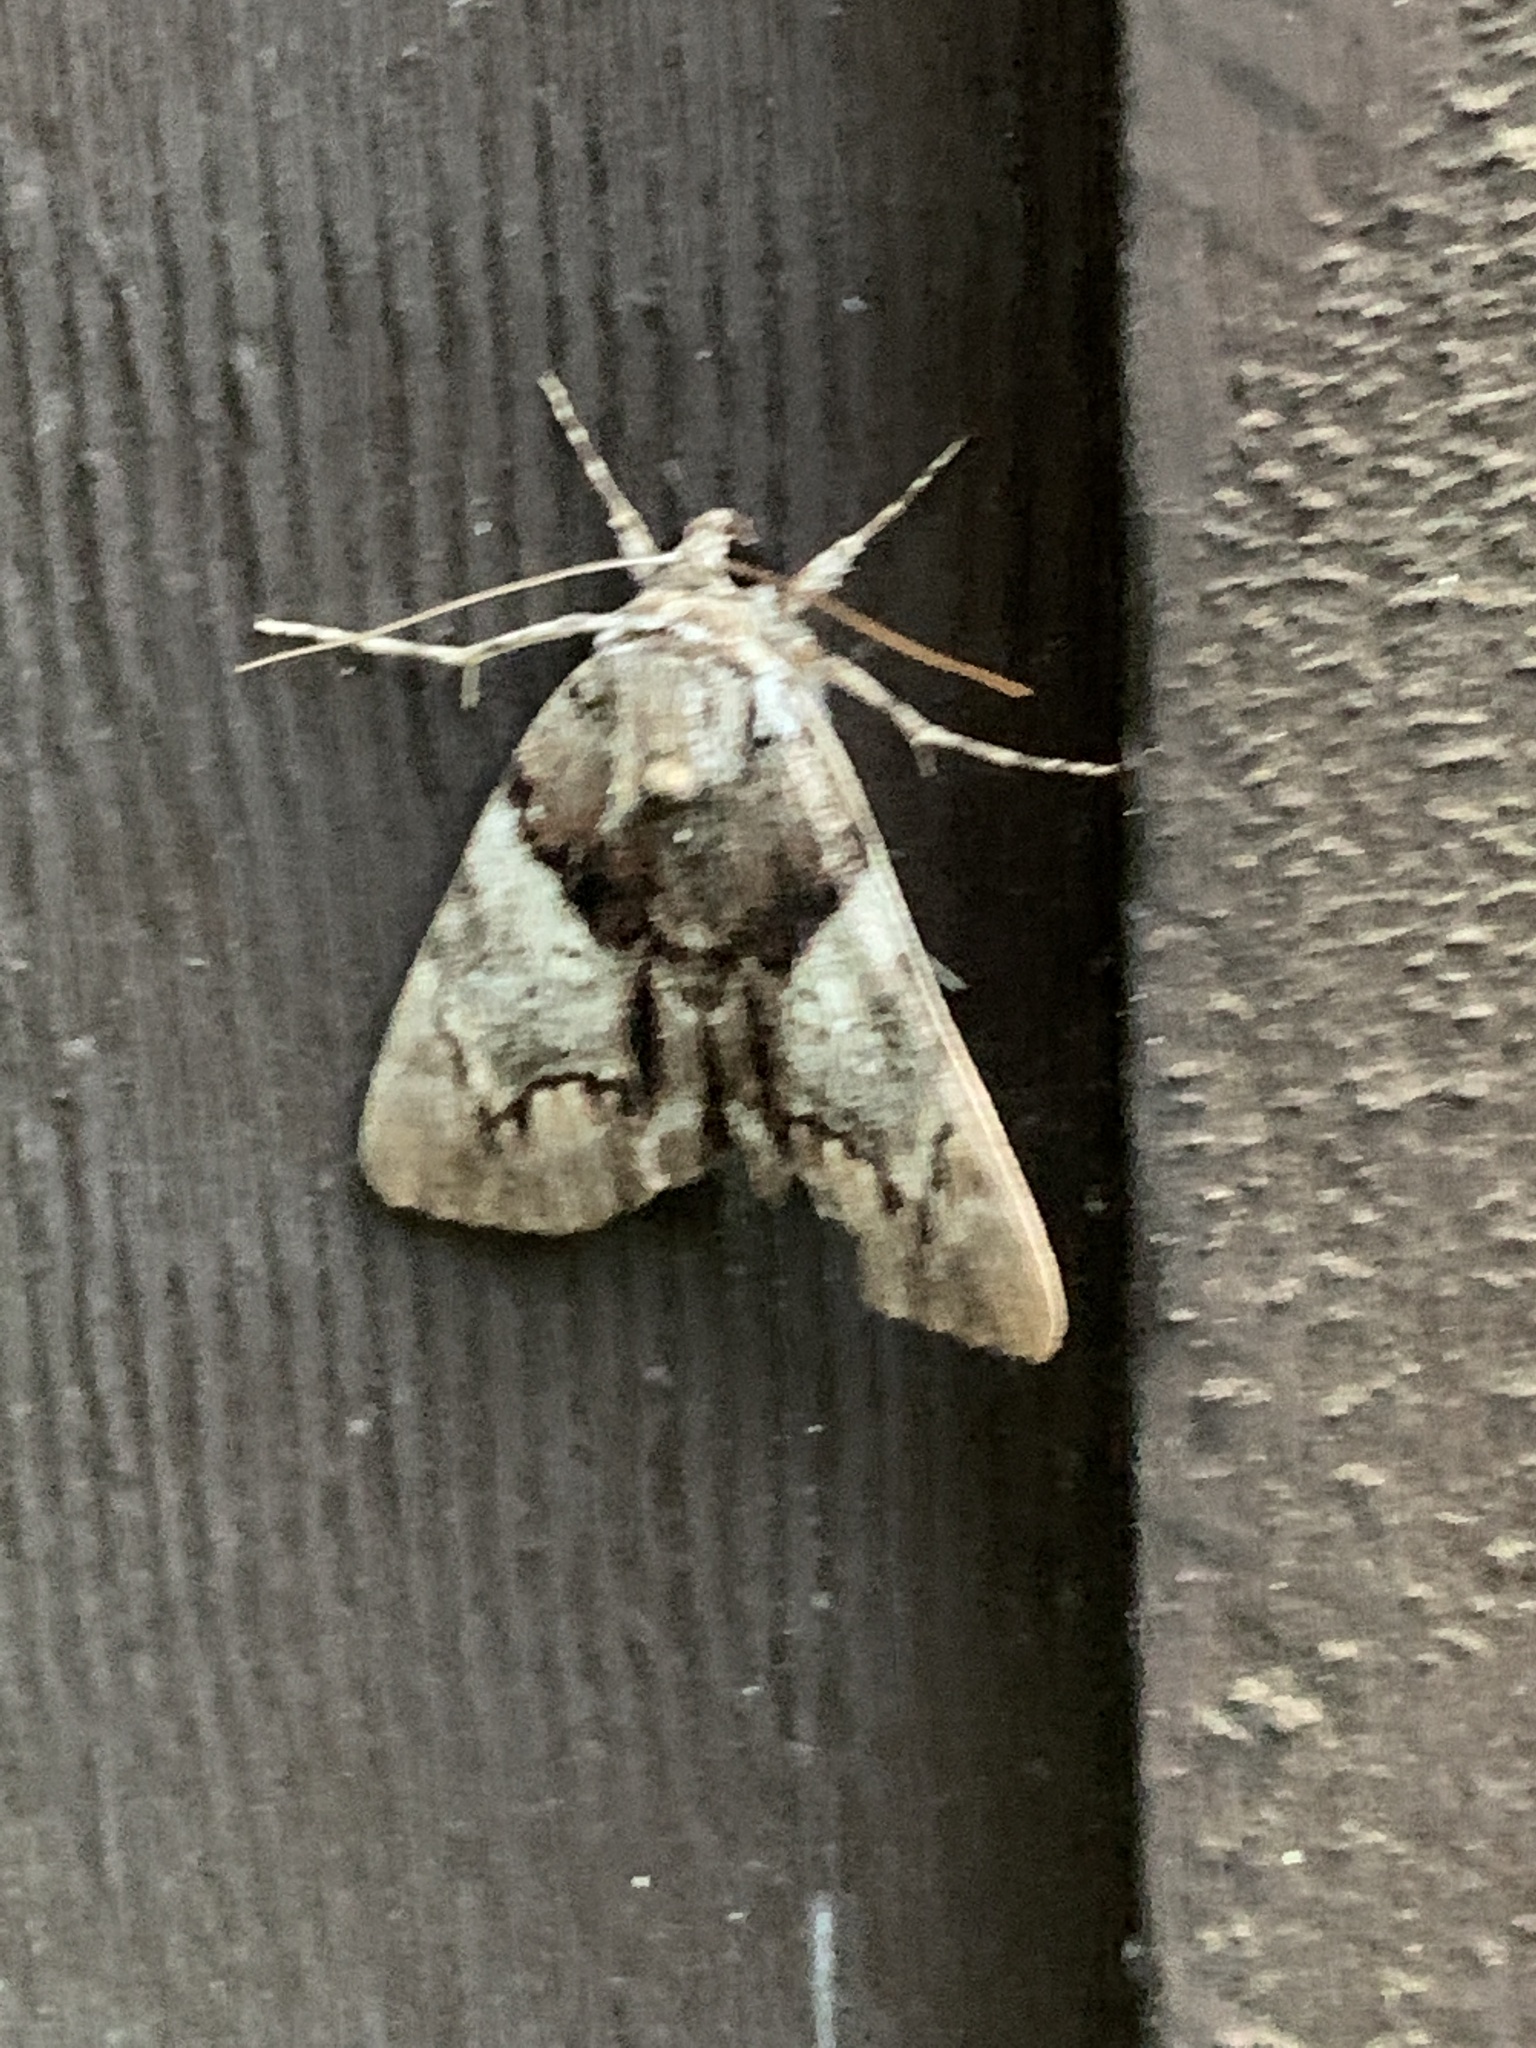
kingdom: Animalia
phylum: Arthropoda
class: Insecta
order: Lepidoptera
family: Erebidae
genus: Catocala
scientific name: Catocala crataegi
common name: Hawthorn underwing moth
